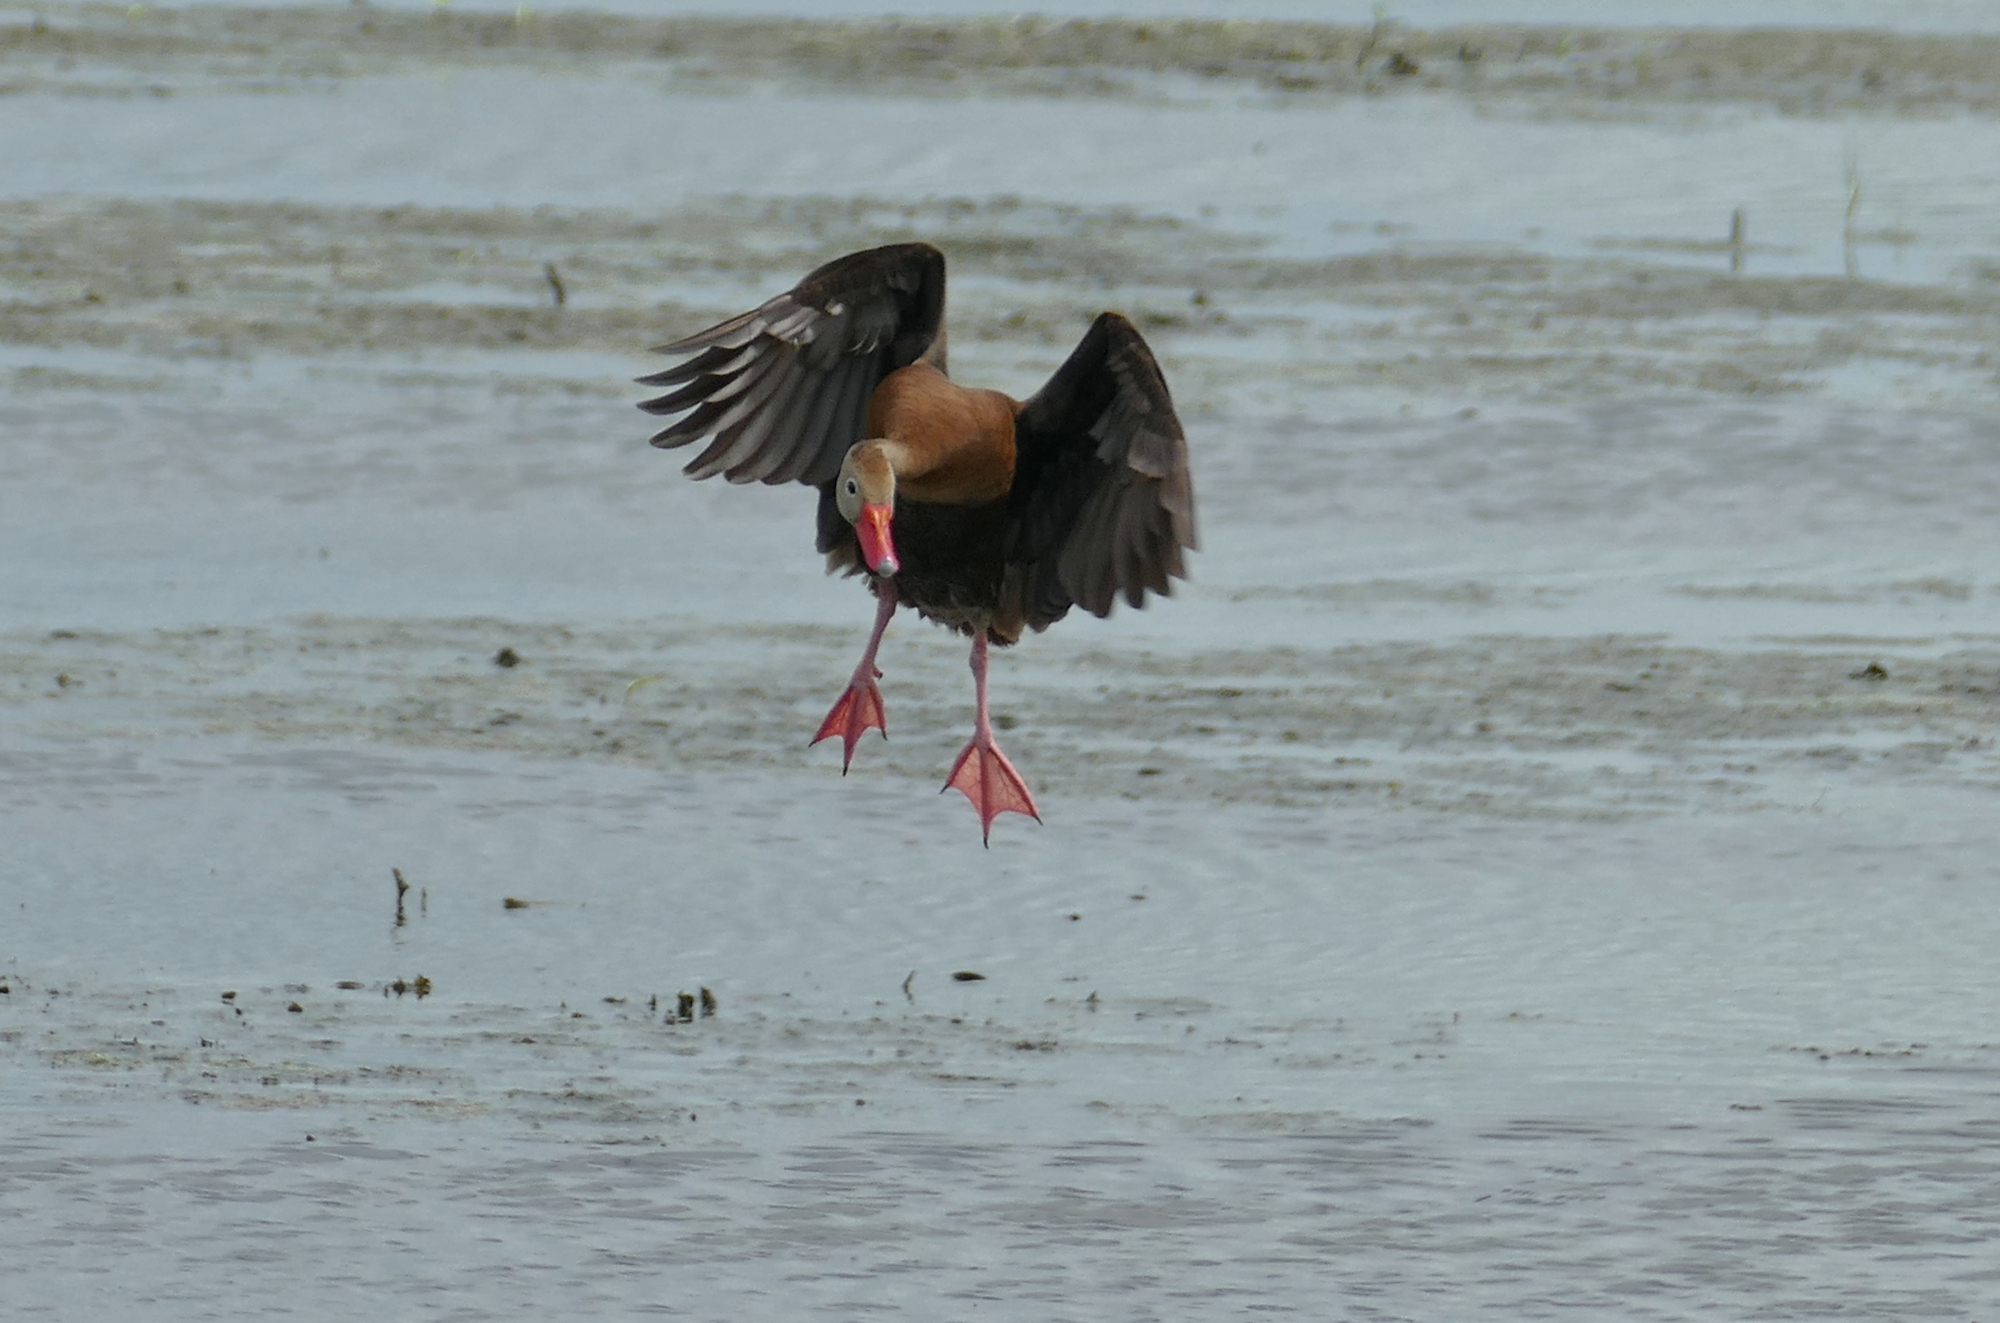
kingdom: Animalia
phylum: Chordata
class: Aves
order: Anseriformes
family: Anatidae
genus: Dendrocygna
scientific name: Dendrocygna autumnalis
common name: Black-bellied whistling duck
